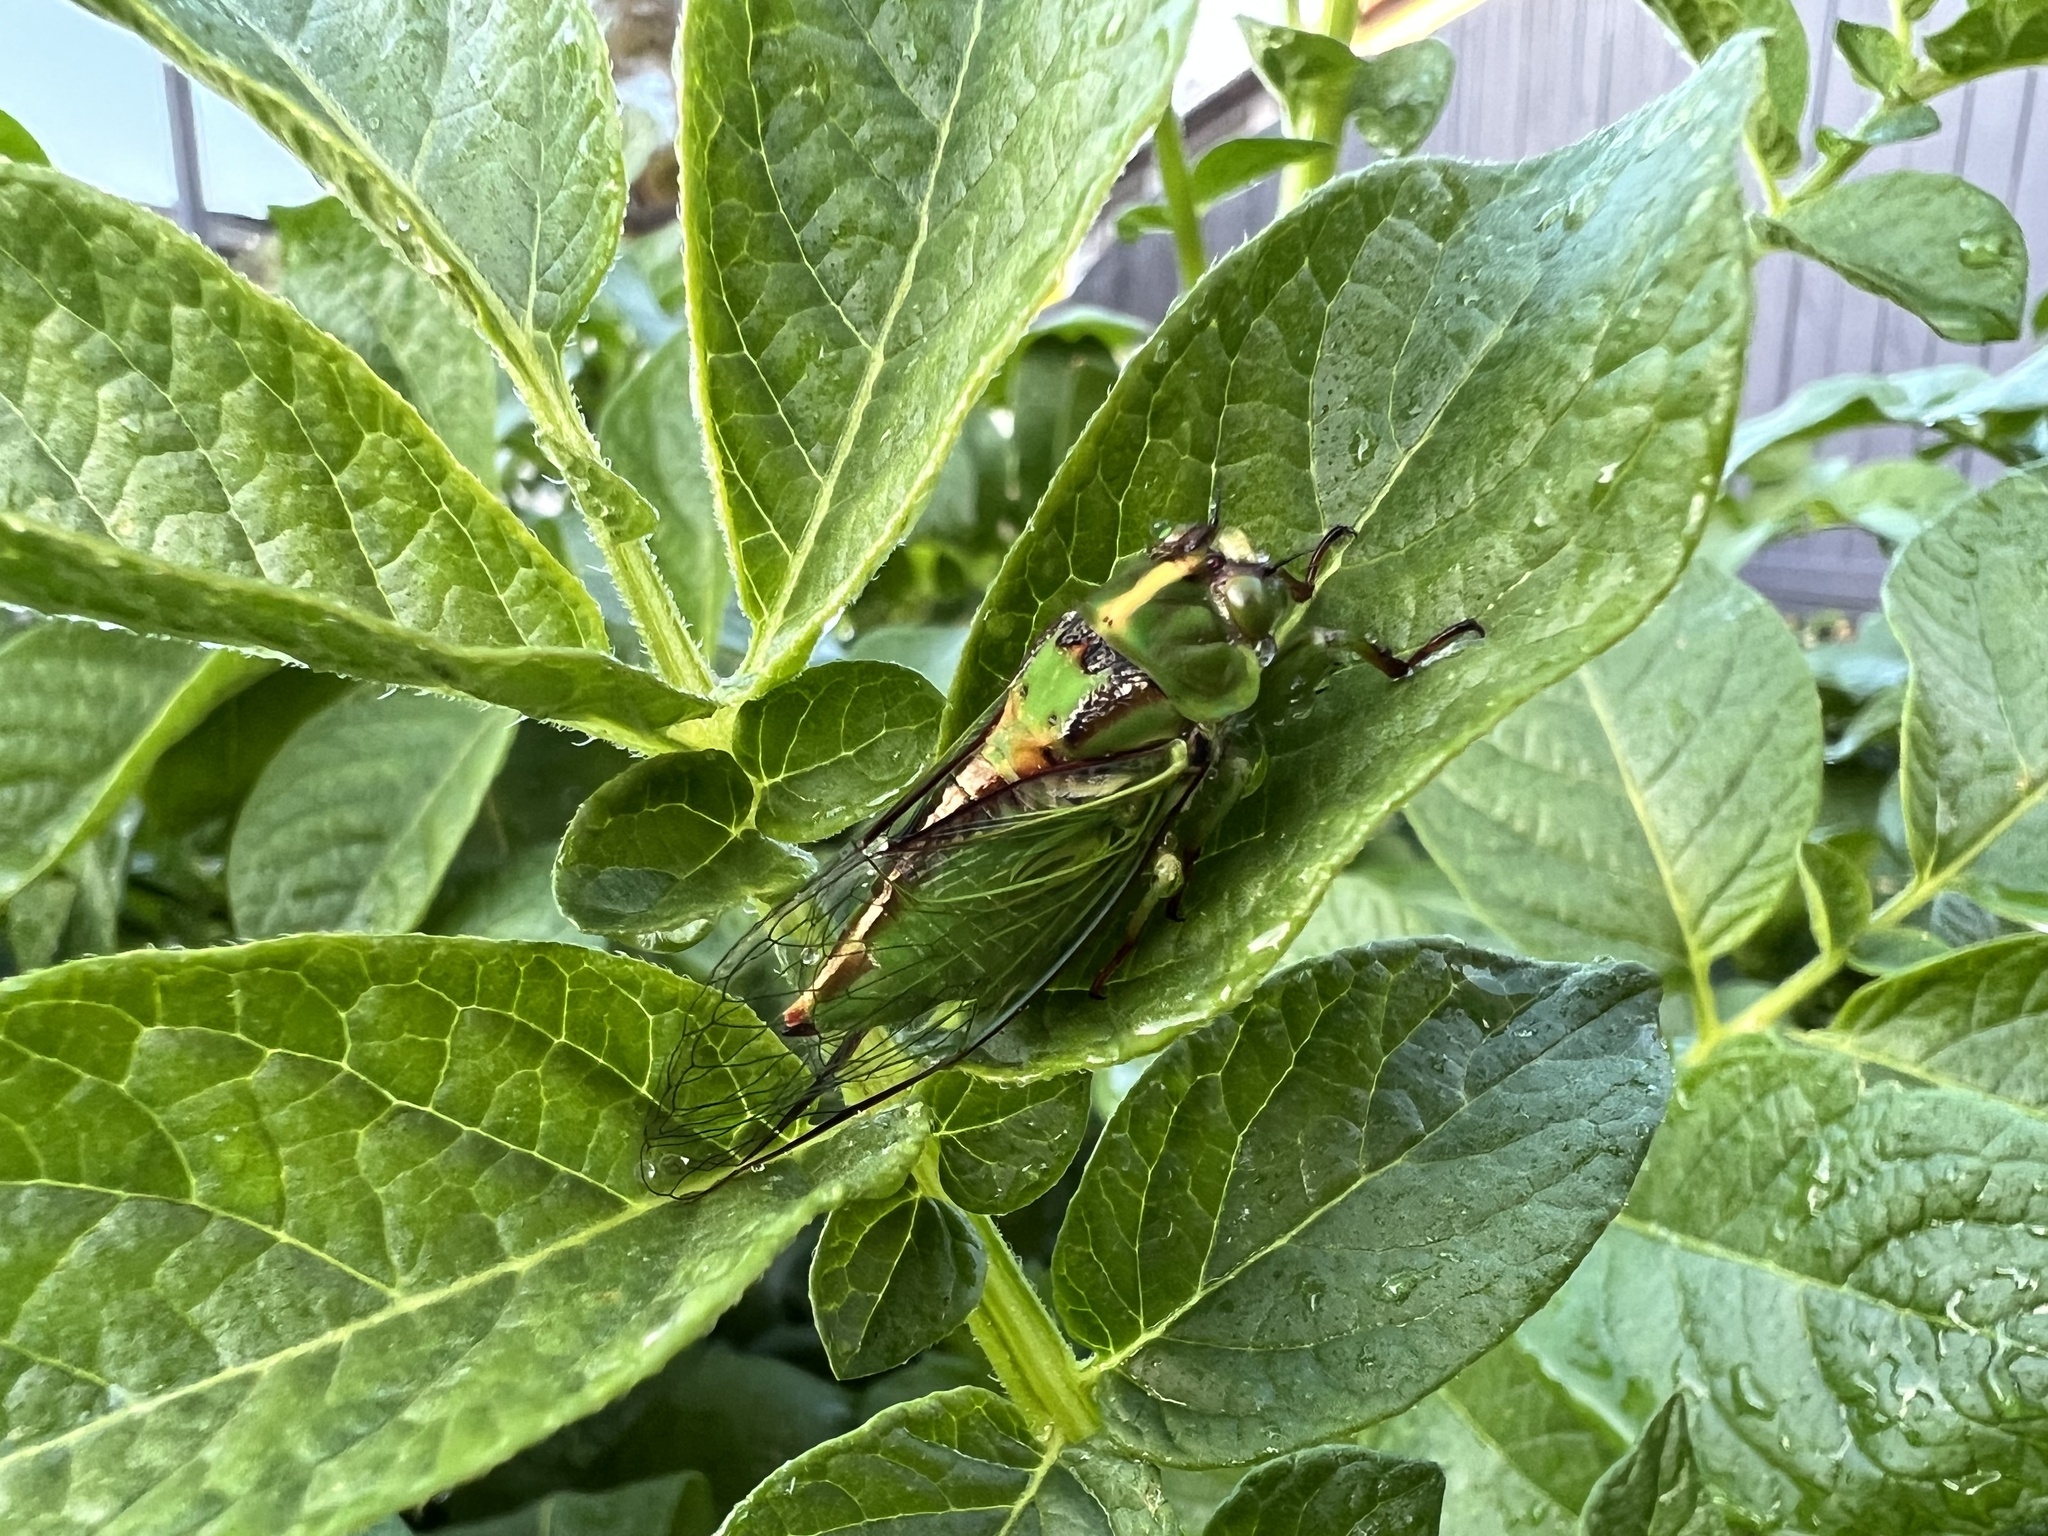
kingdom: Animalia
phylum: Arthropoda
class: Insecta
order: Hemiptera
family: Cicadidae
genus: Kikihia
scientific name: Kikihia subalpina
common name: Chathams cicada
